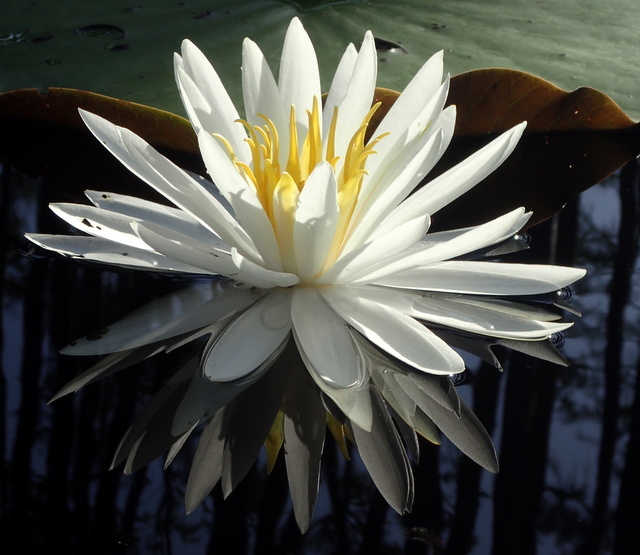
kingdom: Plantae
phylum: Tracheophyta
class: Magnoliopsida
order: Nymphaeales
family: Nymphaeaceae
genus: Nymphaea
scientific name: Nymphaea odorata
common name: Fragrant water-lily
